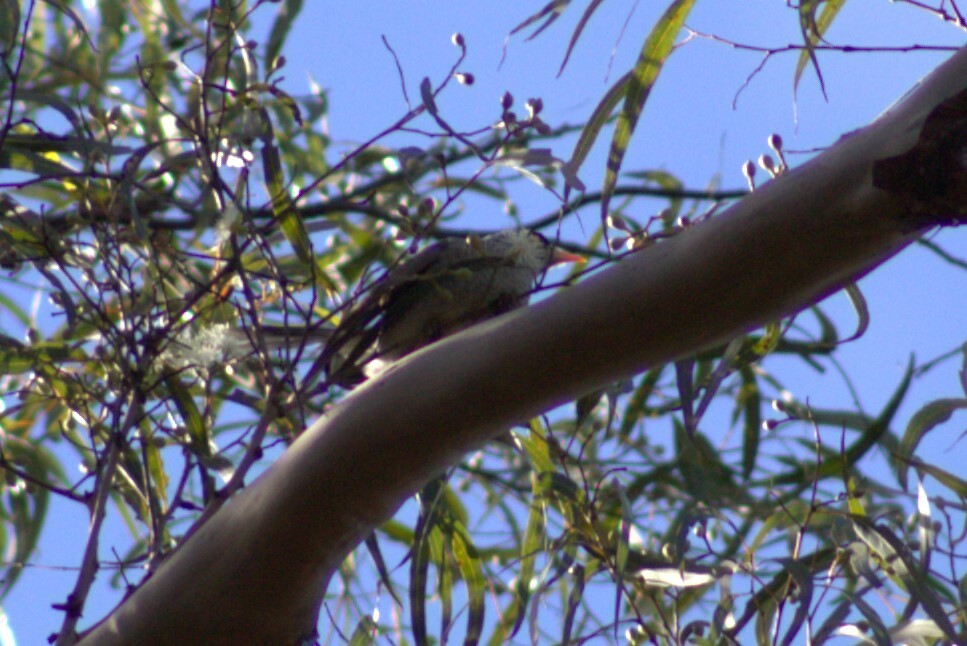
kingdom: Animalia
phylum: Chordata
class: Aves
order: Passeriformes
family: Meliphagidae
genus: Manorina
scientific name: Manorina melanocephala
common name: Noisy miner
